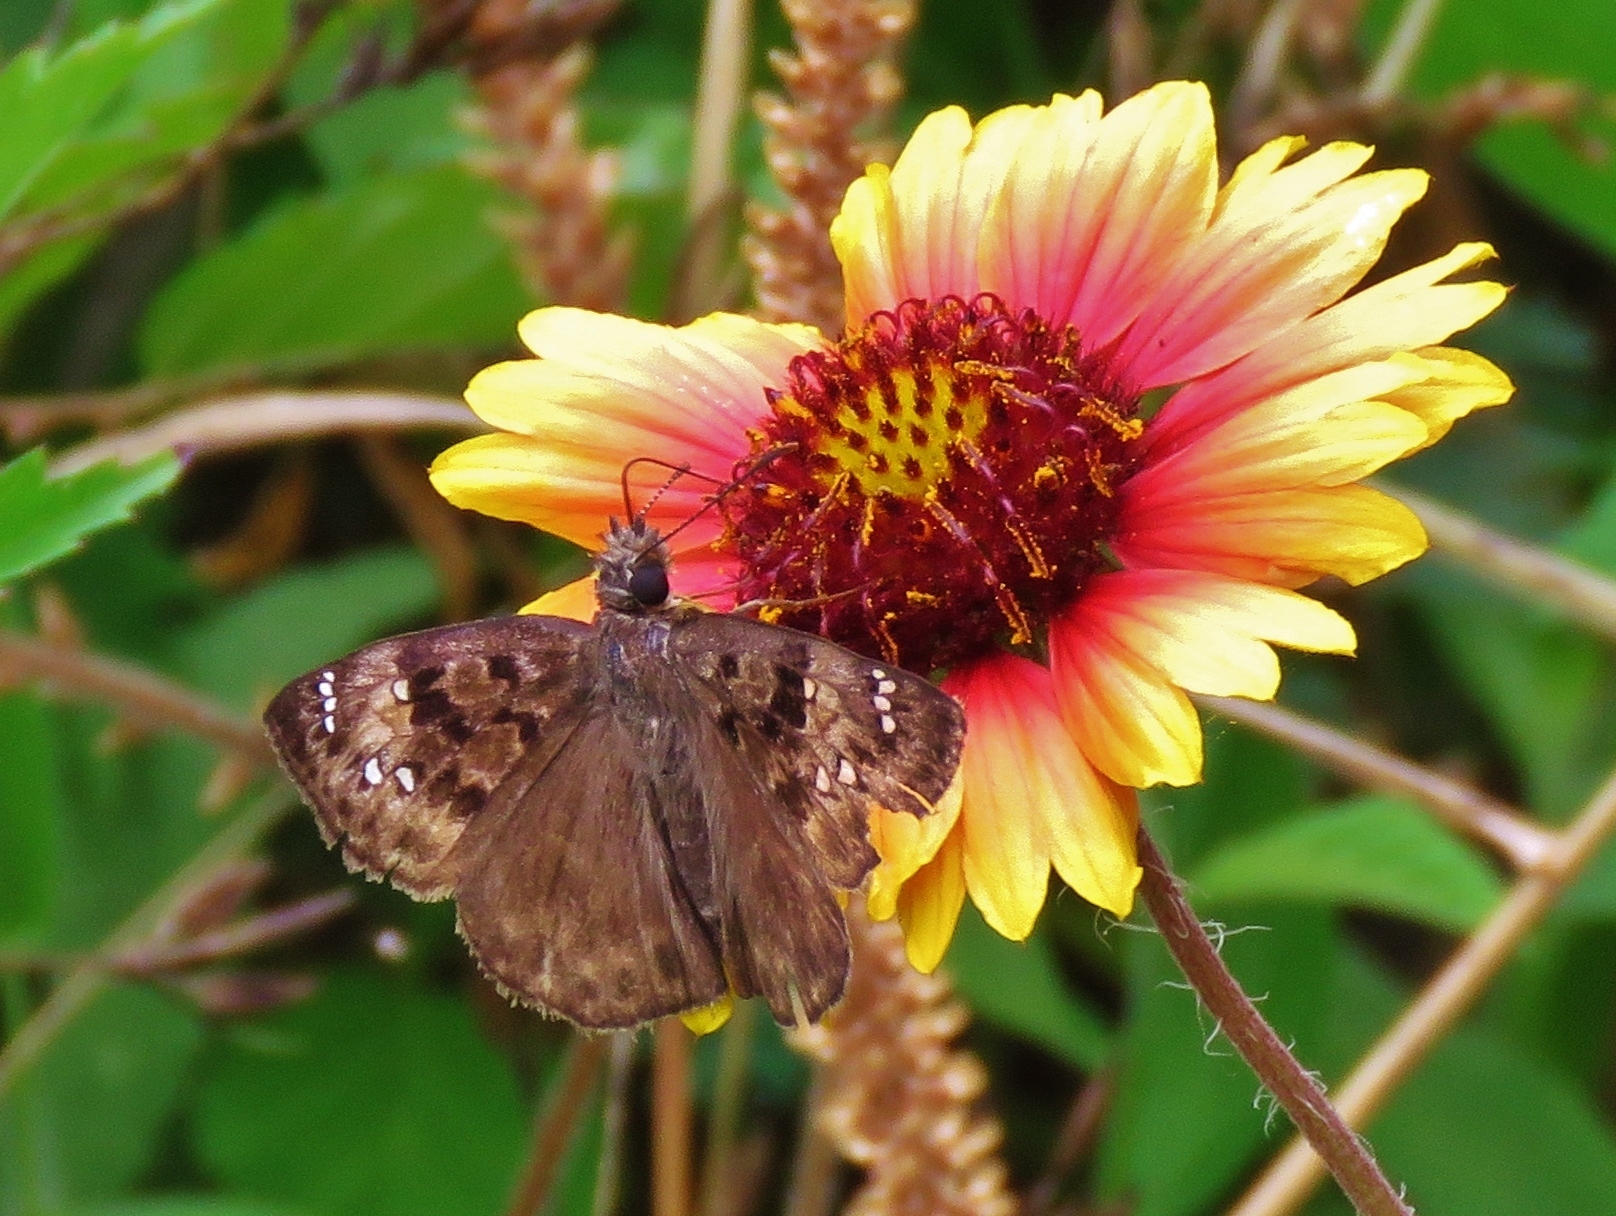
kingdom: Animalia
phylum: Arthropoda
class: Insecta
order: Lepidoptera
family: Hesperiidae
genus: Erynnis
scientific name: Erynnis horatius
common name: Horace's duskywing
